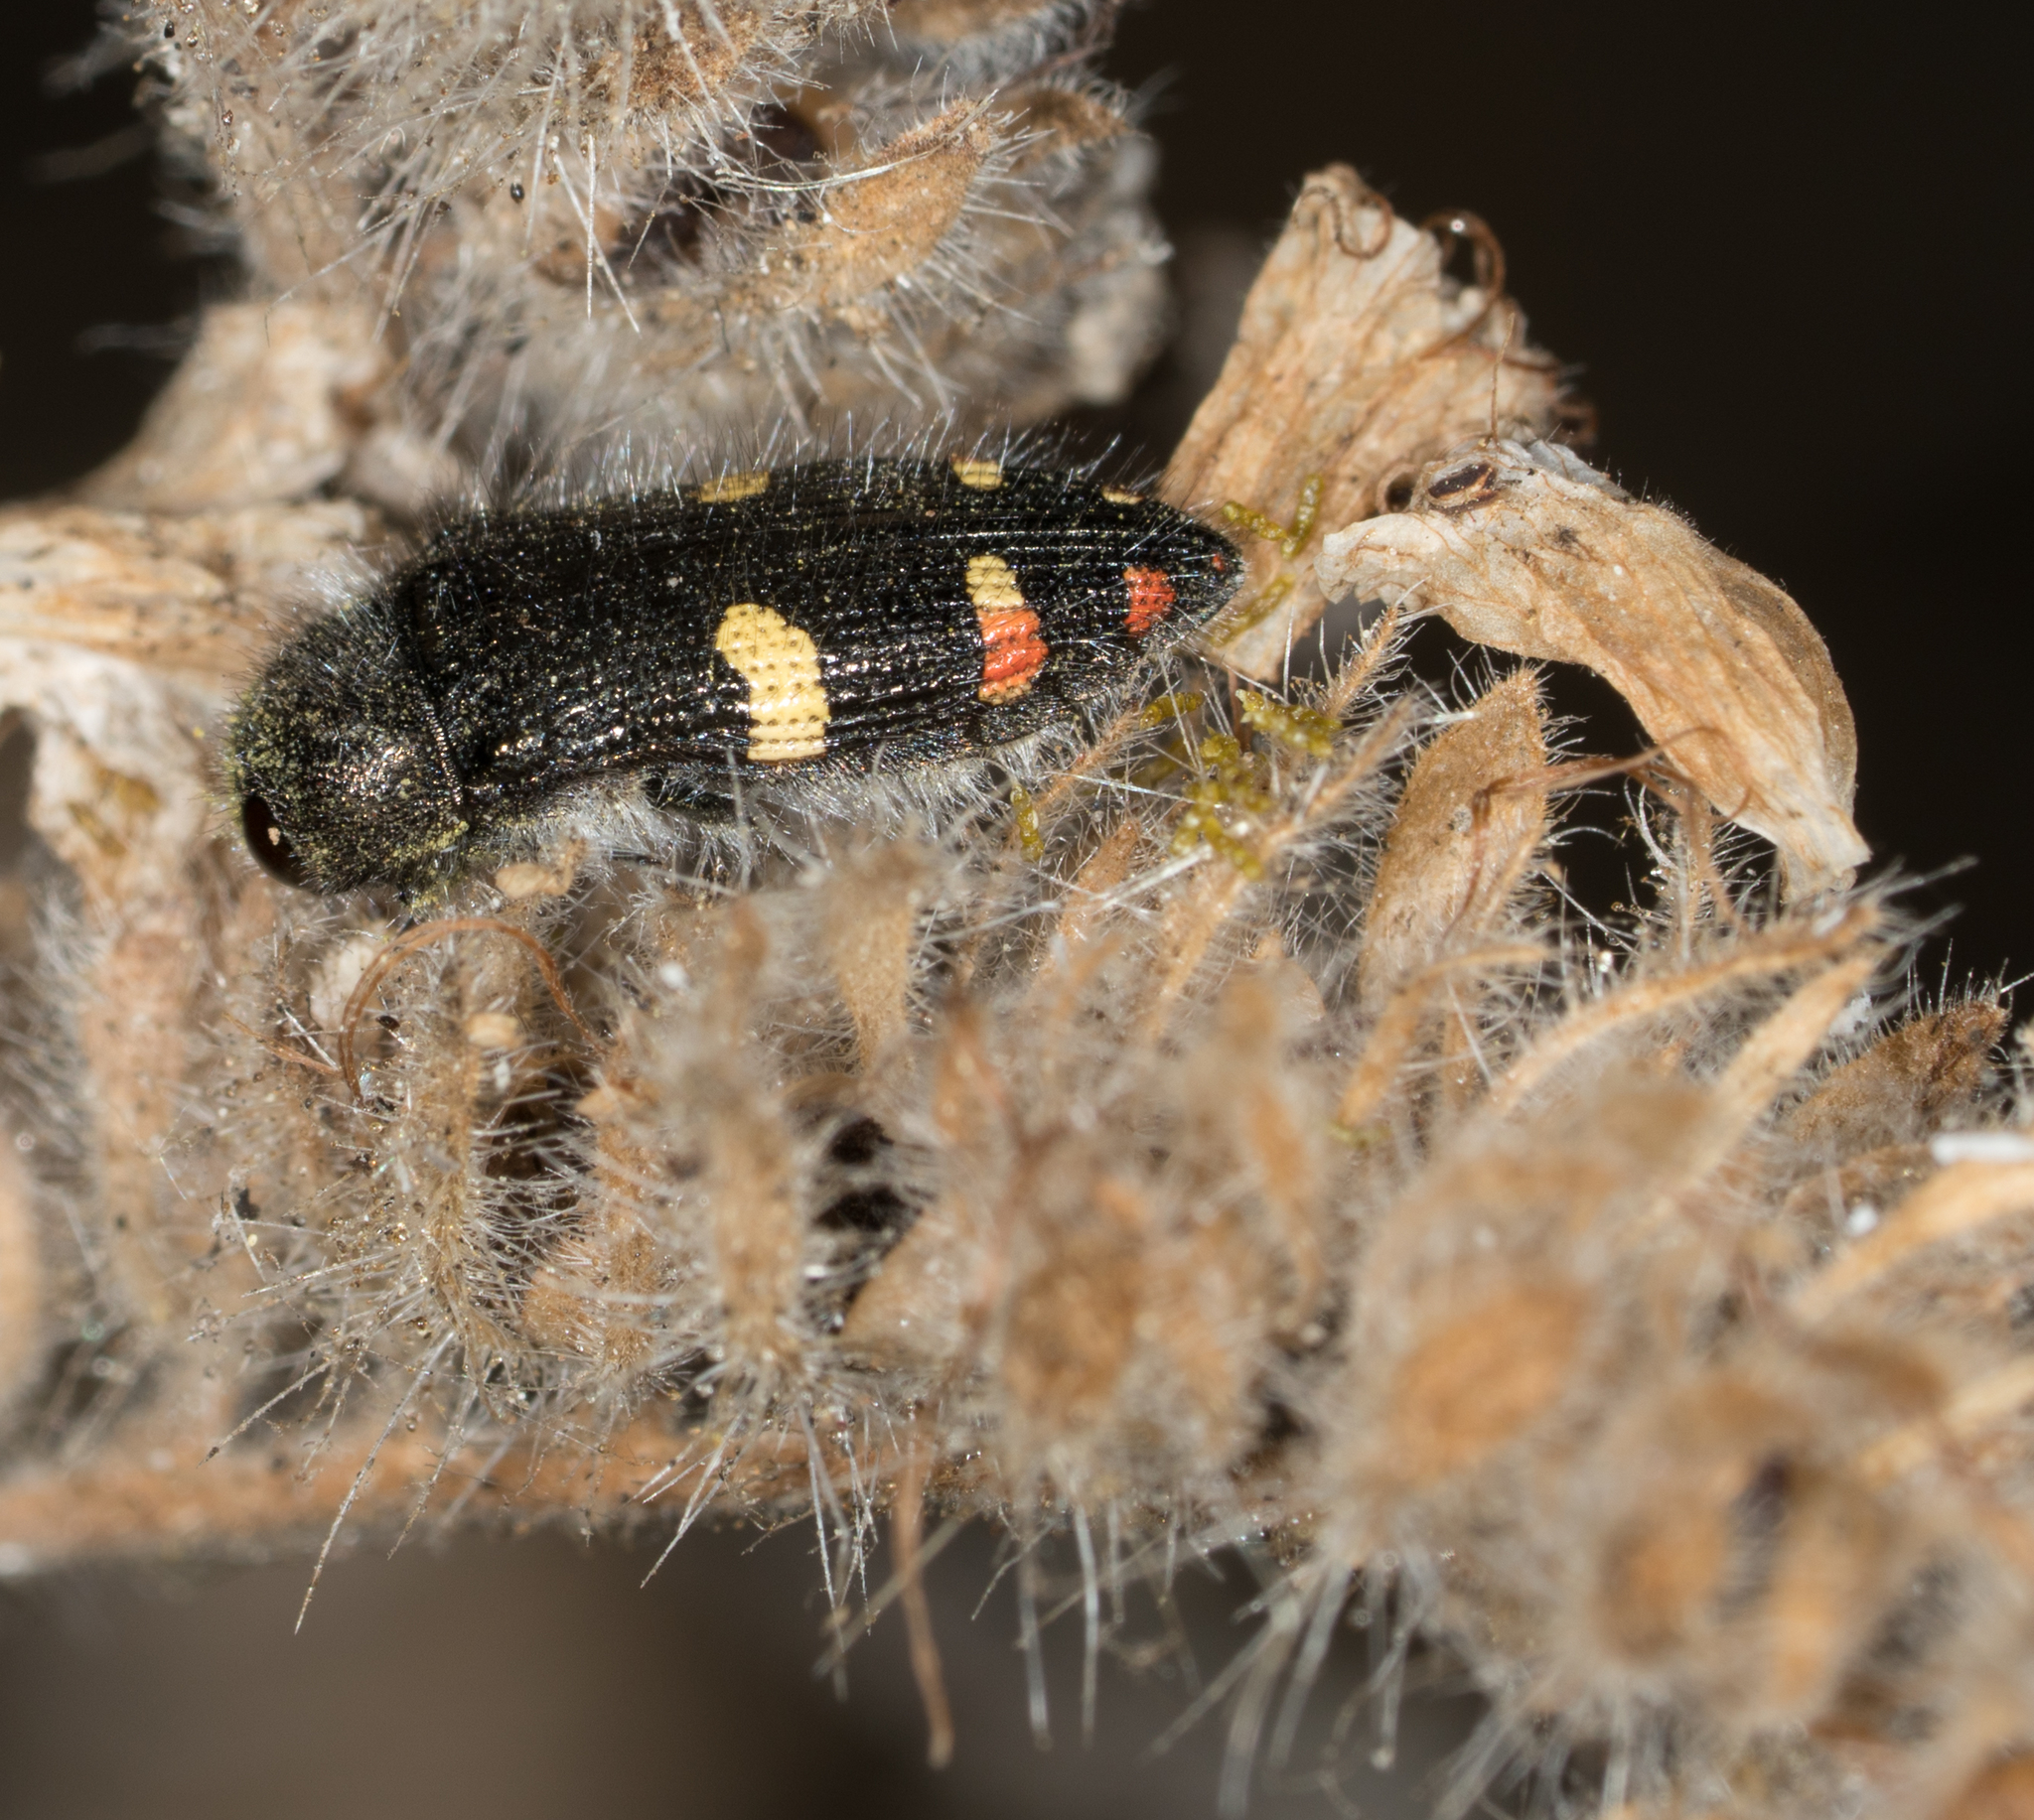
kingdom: Animalia
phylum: Arthropoda
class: Insecta
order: Coleoptera
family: Buprestidae
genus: Acmaeodera
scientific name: Acmaeodera holsteni
